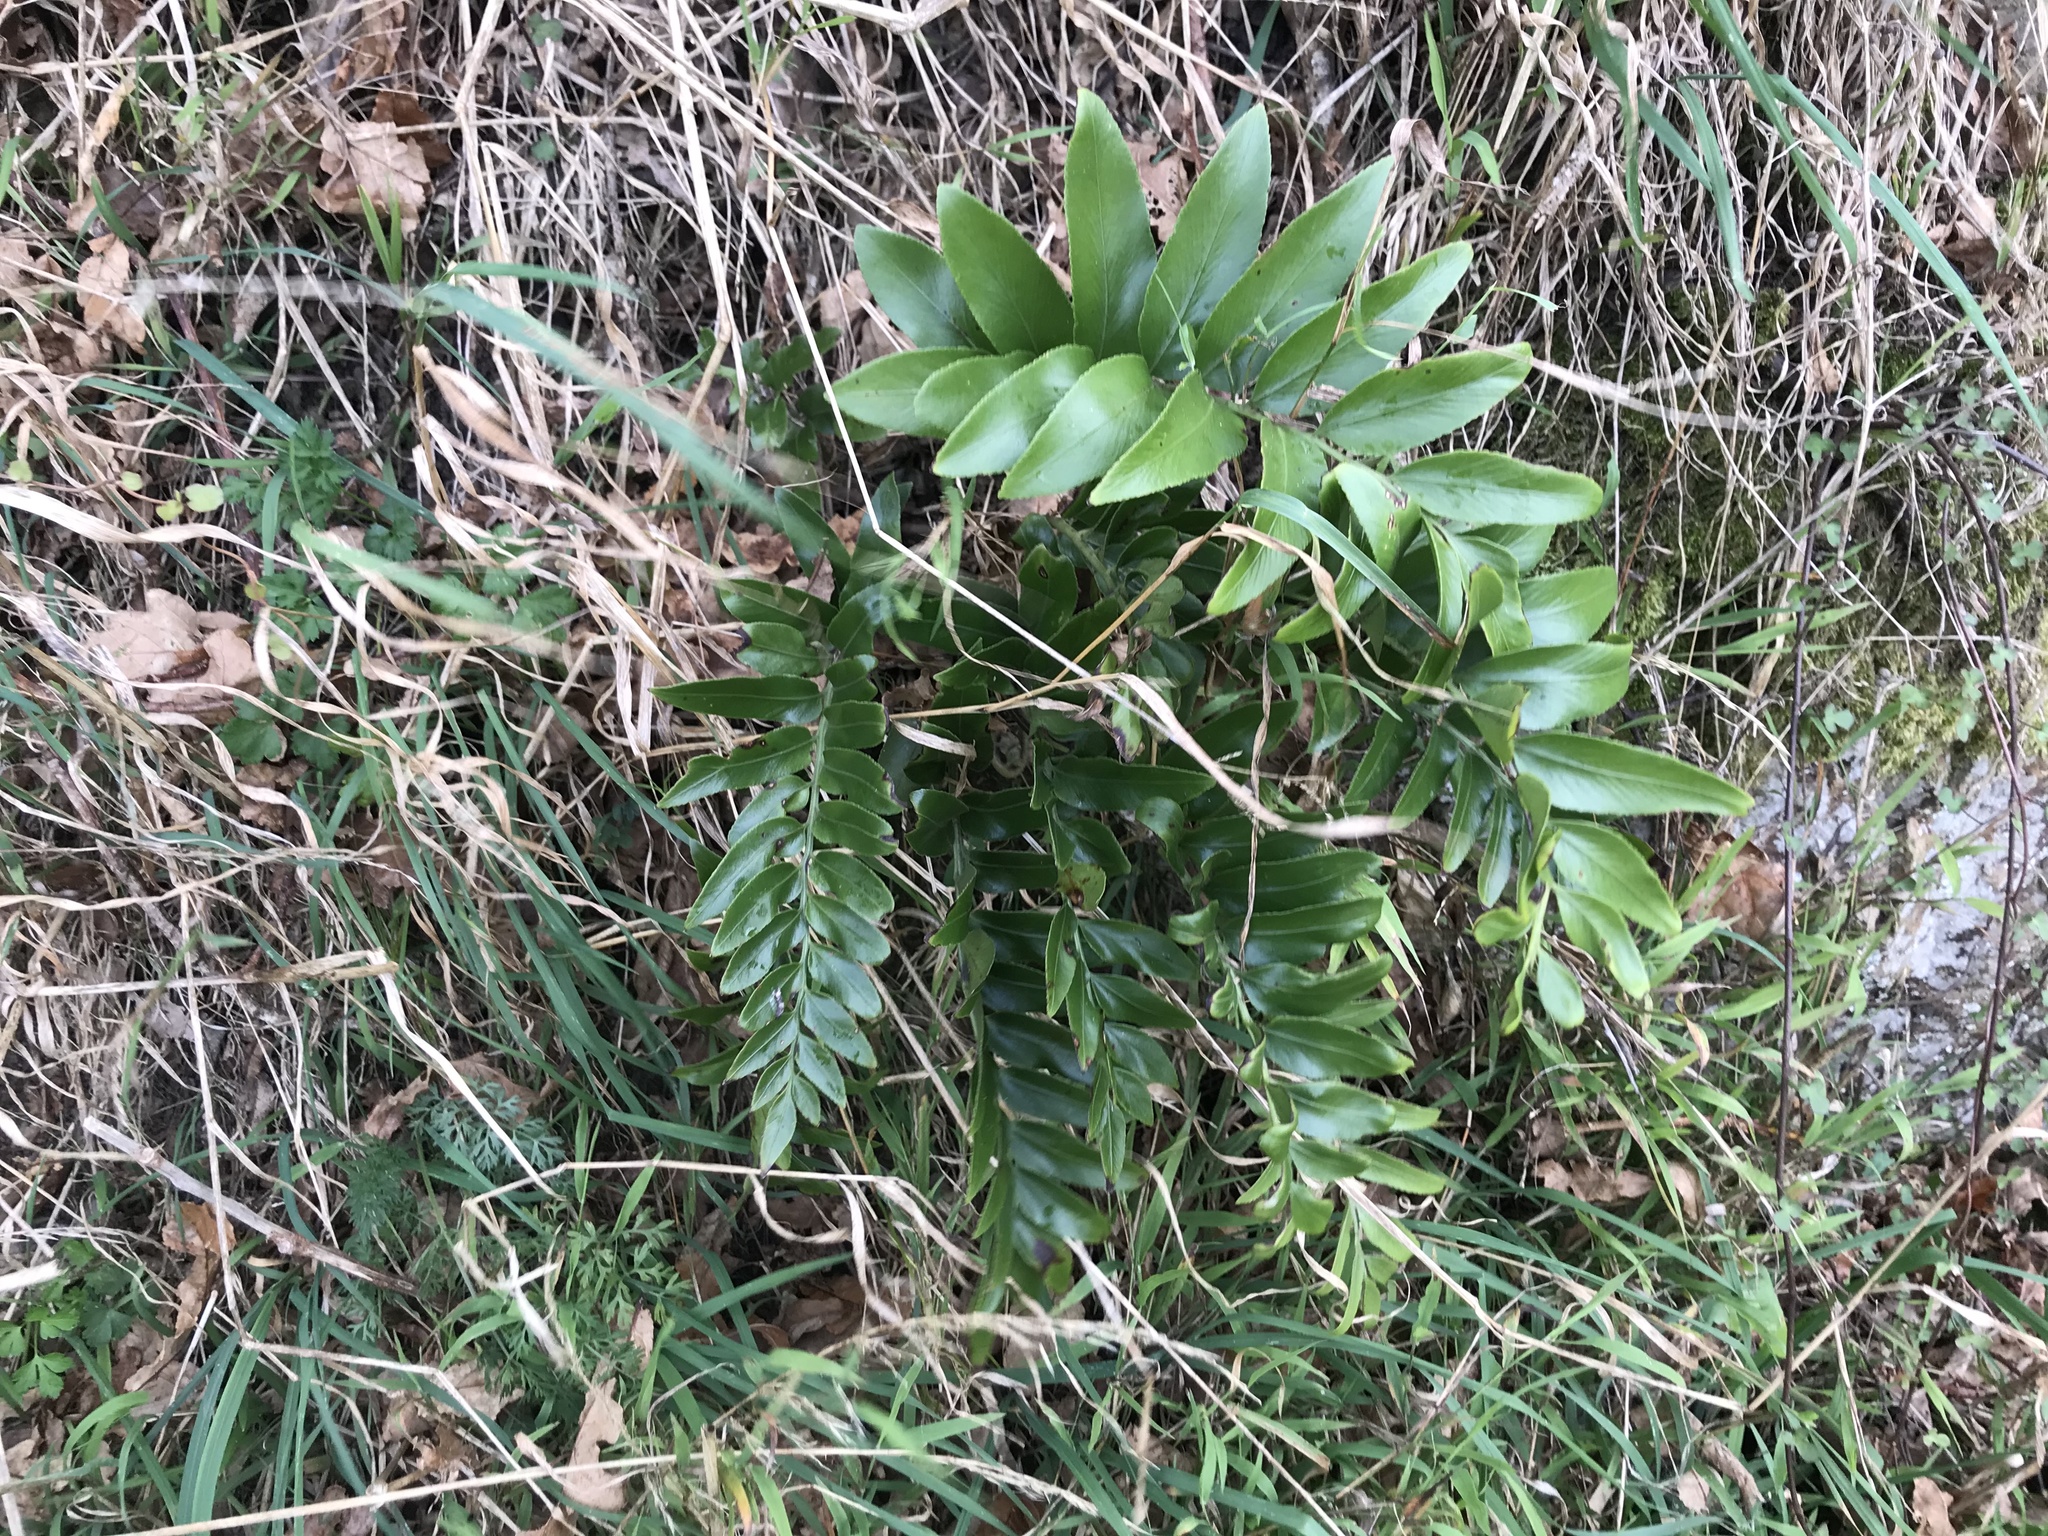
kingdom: Plantae
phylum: Tracheophyta
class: Polypodiopsida
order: Polypodiales
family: Aspleniaceae
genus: Asplenium
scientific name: Asplenium oblongifolium
